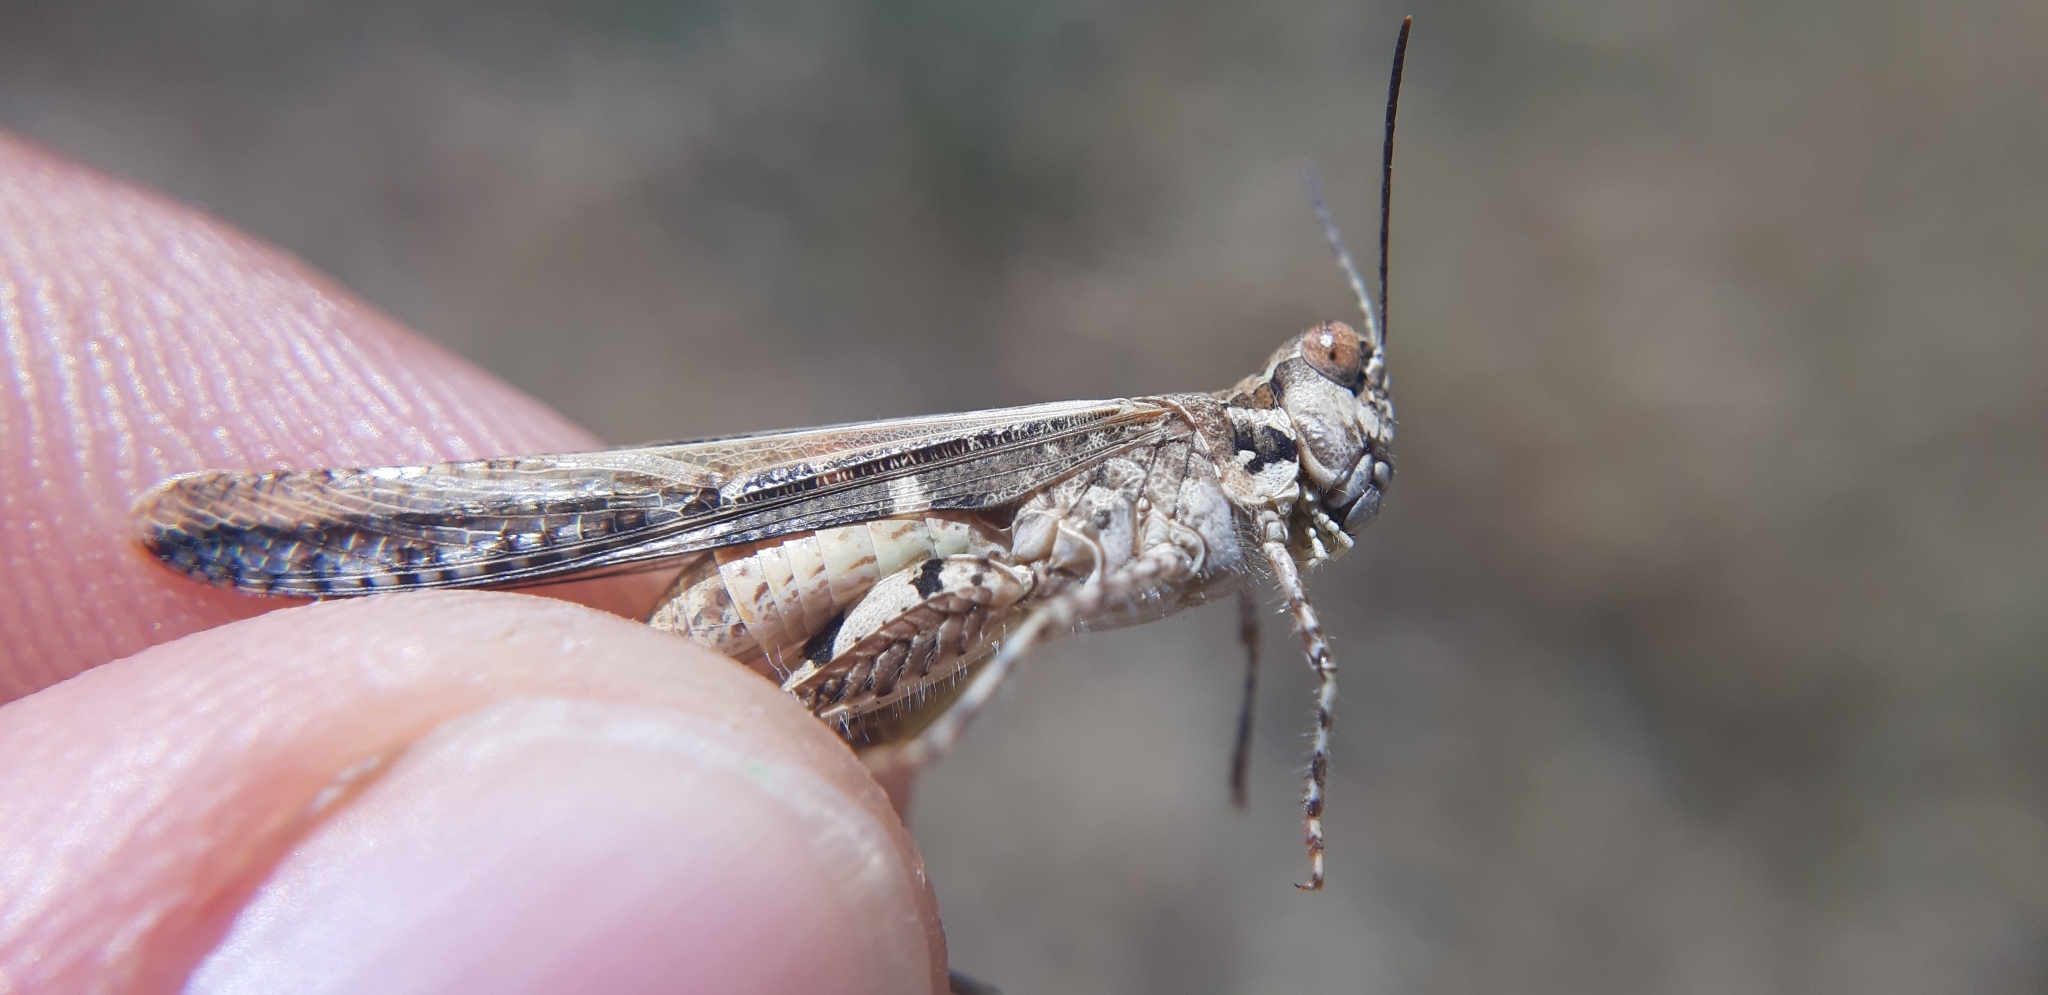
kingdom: Animalia
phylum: Arthropoda
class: Insecta
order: Orthoptera
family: Acrididae
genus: Acrotylus
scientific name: Acrotylus patruelis
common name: Slender burrowing grasshopper
